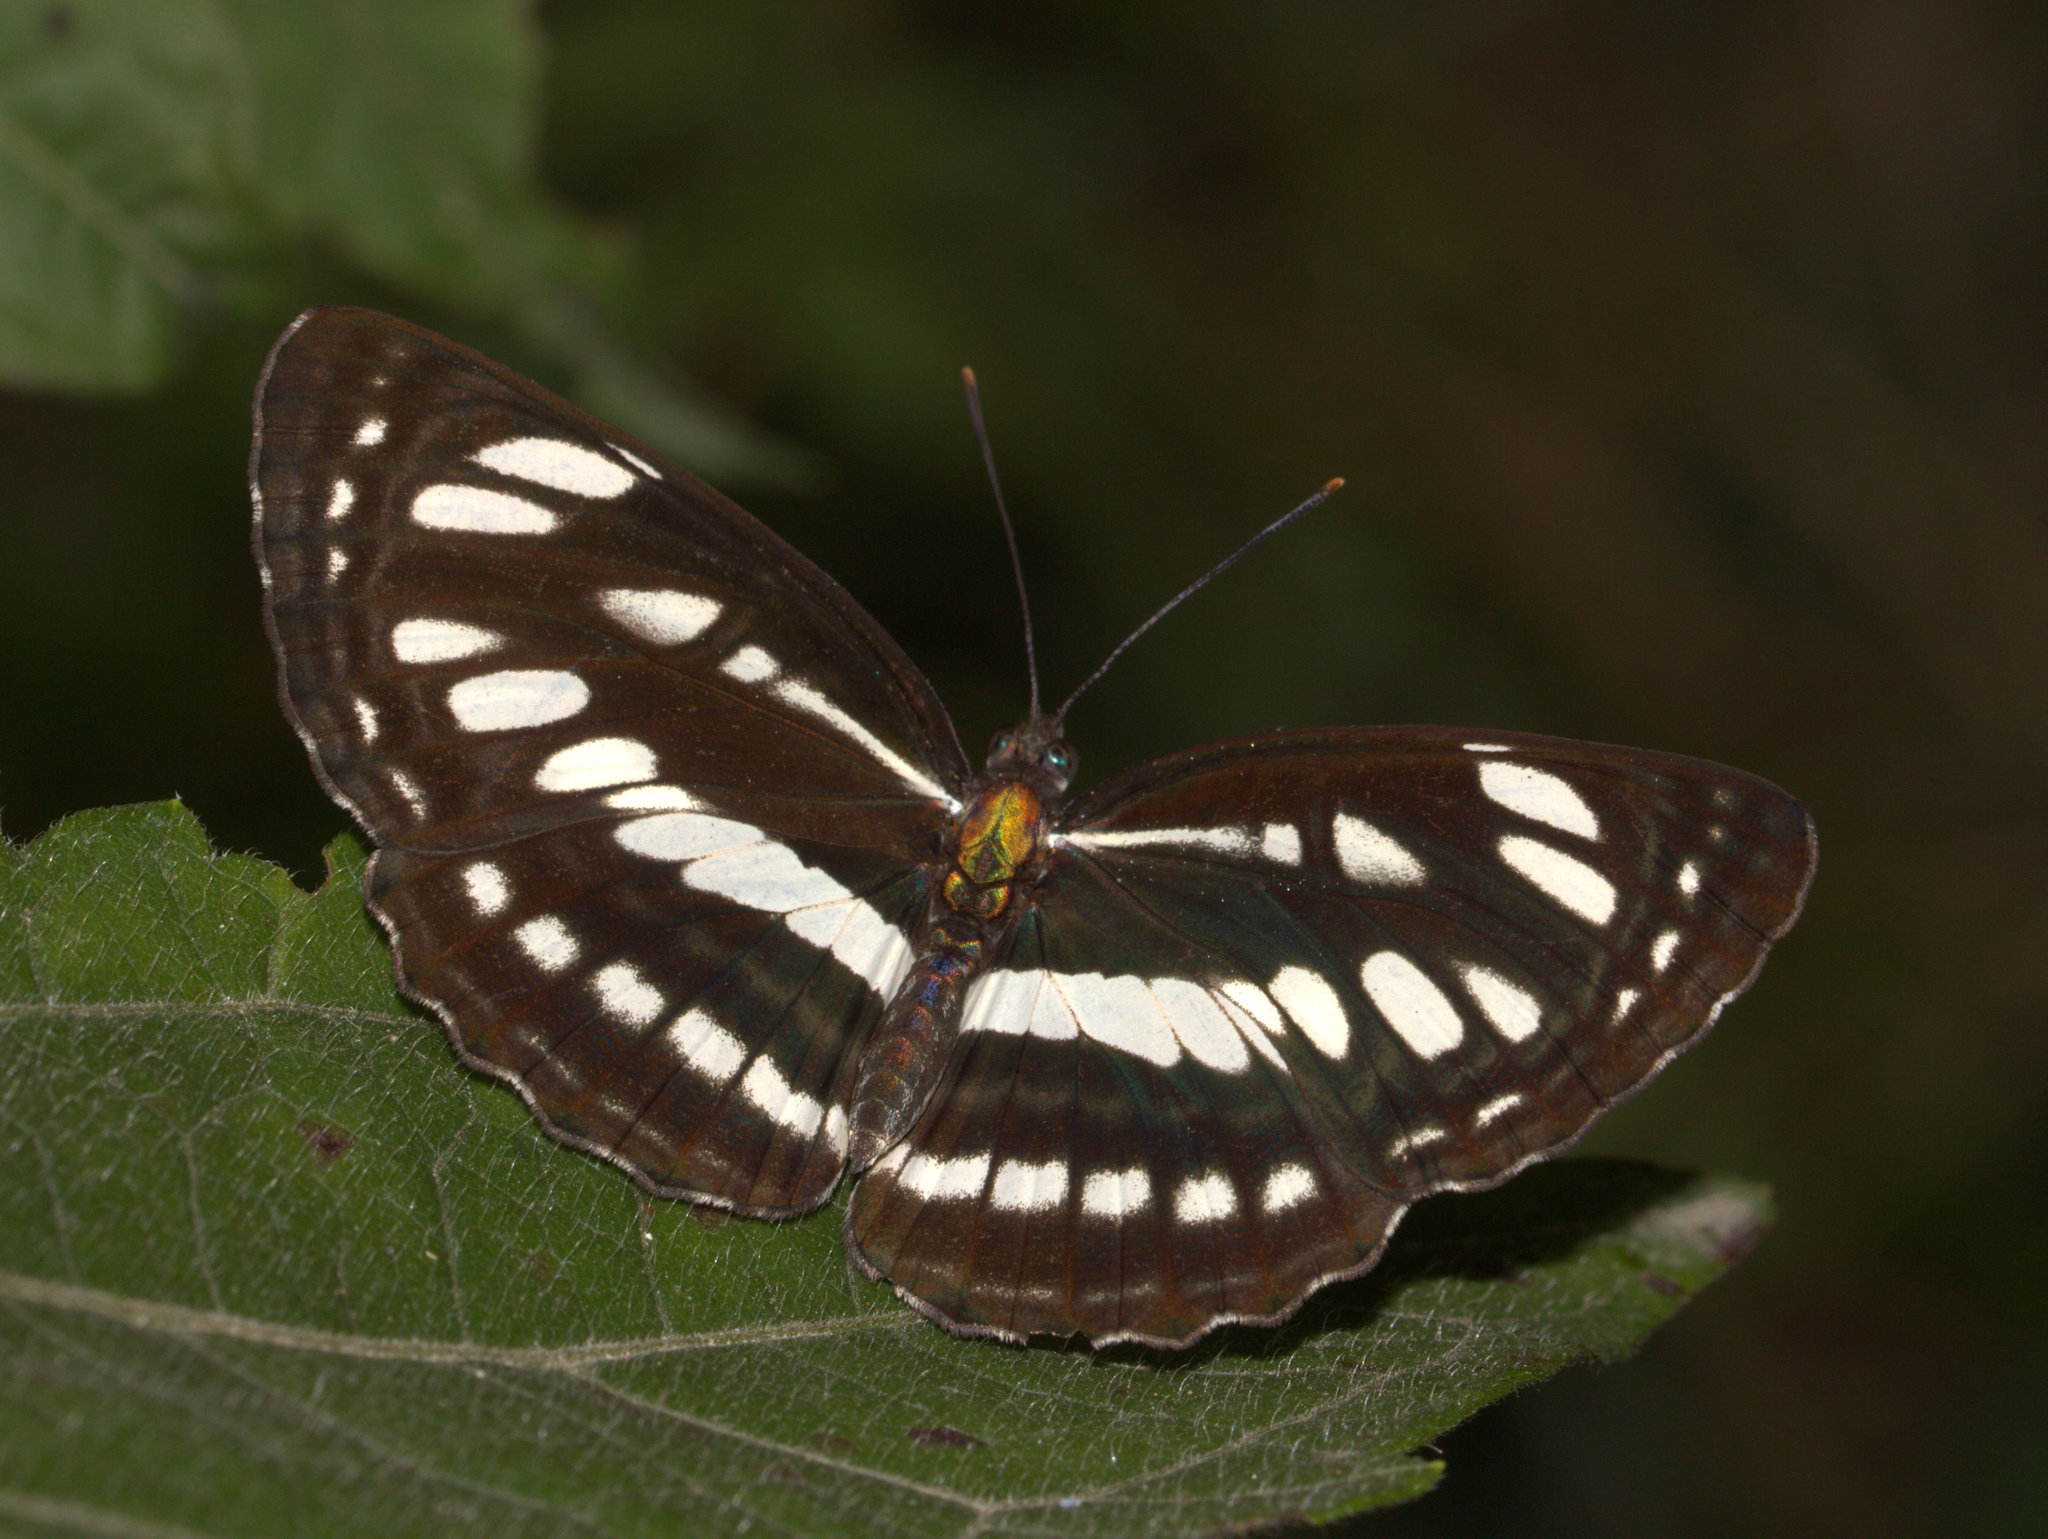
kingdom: Animalia
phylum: Arthropoda
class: Insecta
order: Lepidoptera
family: Nymphalidae
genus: Neptis
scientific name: Neptis hylas
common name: Common sailer
